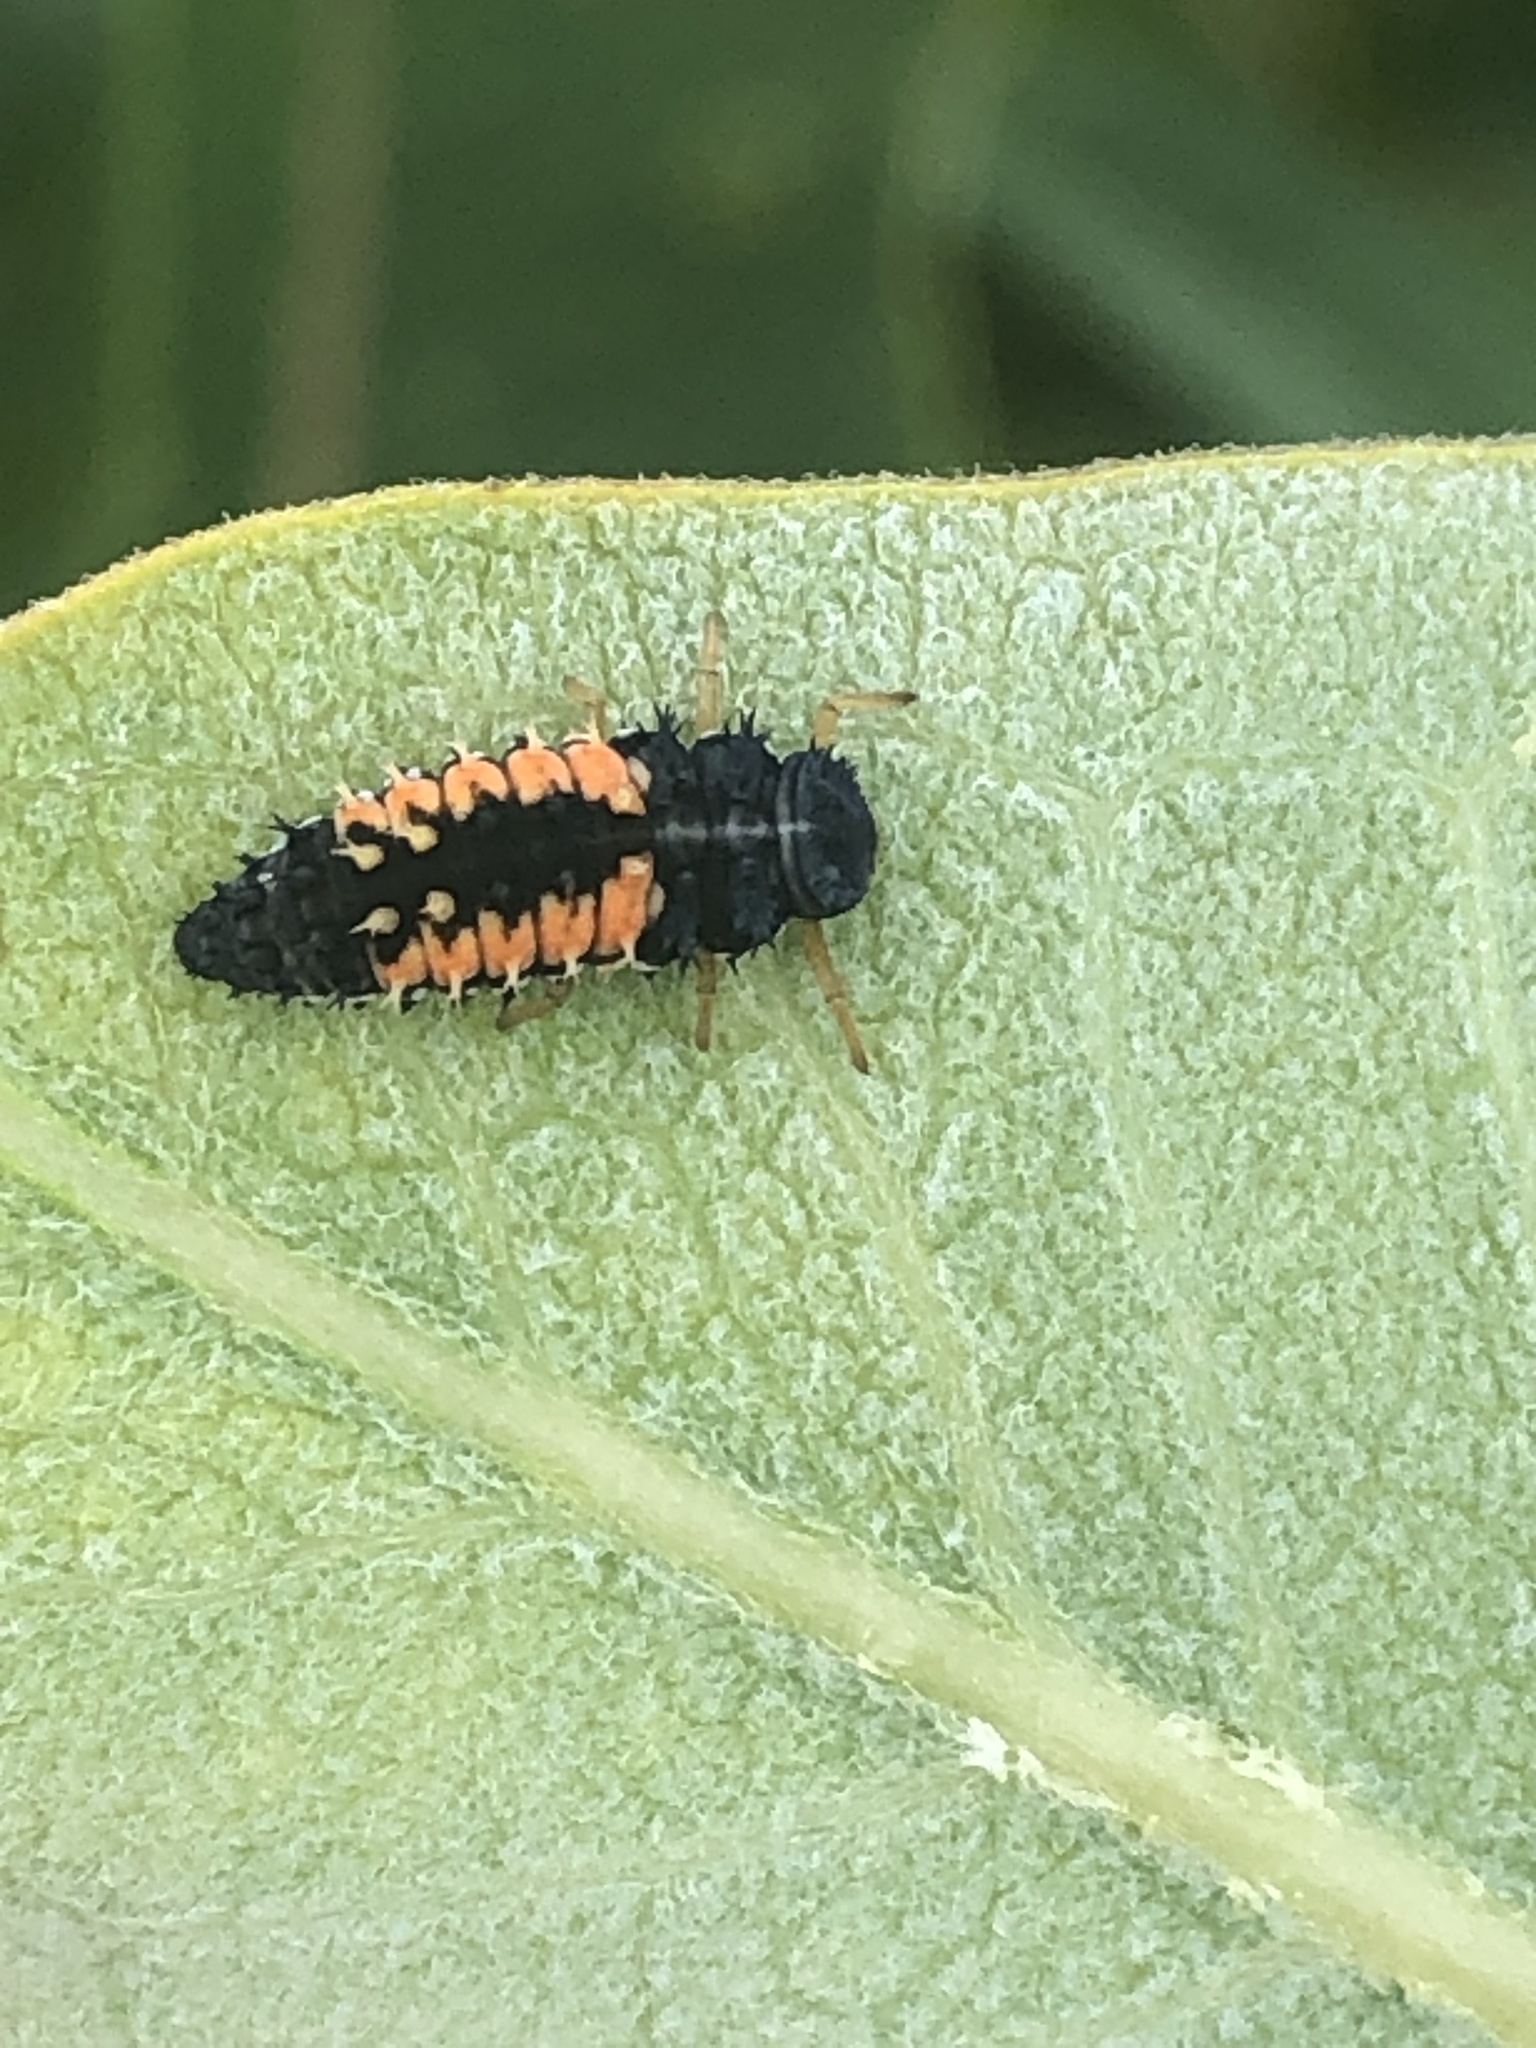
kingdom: Animalia
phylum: Arthropoda
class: Insecta
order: Coleoptera
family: Coccinellidae
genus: Harmonia
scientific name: Harmonia axyridis
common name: Harlequin ladybird
